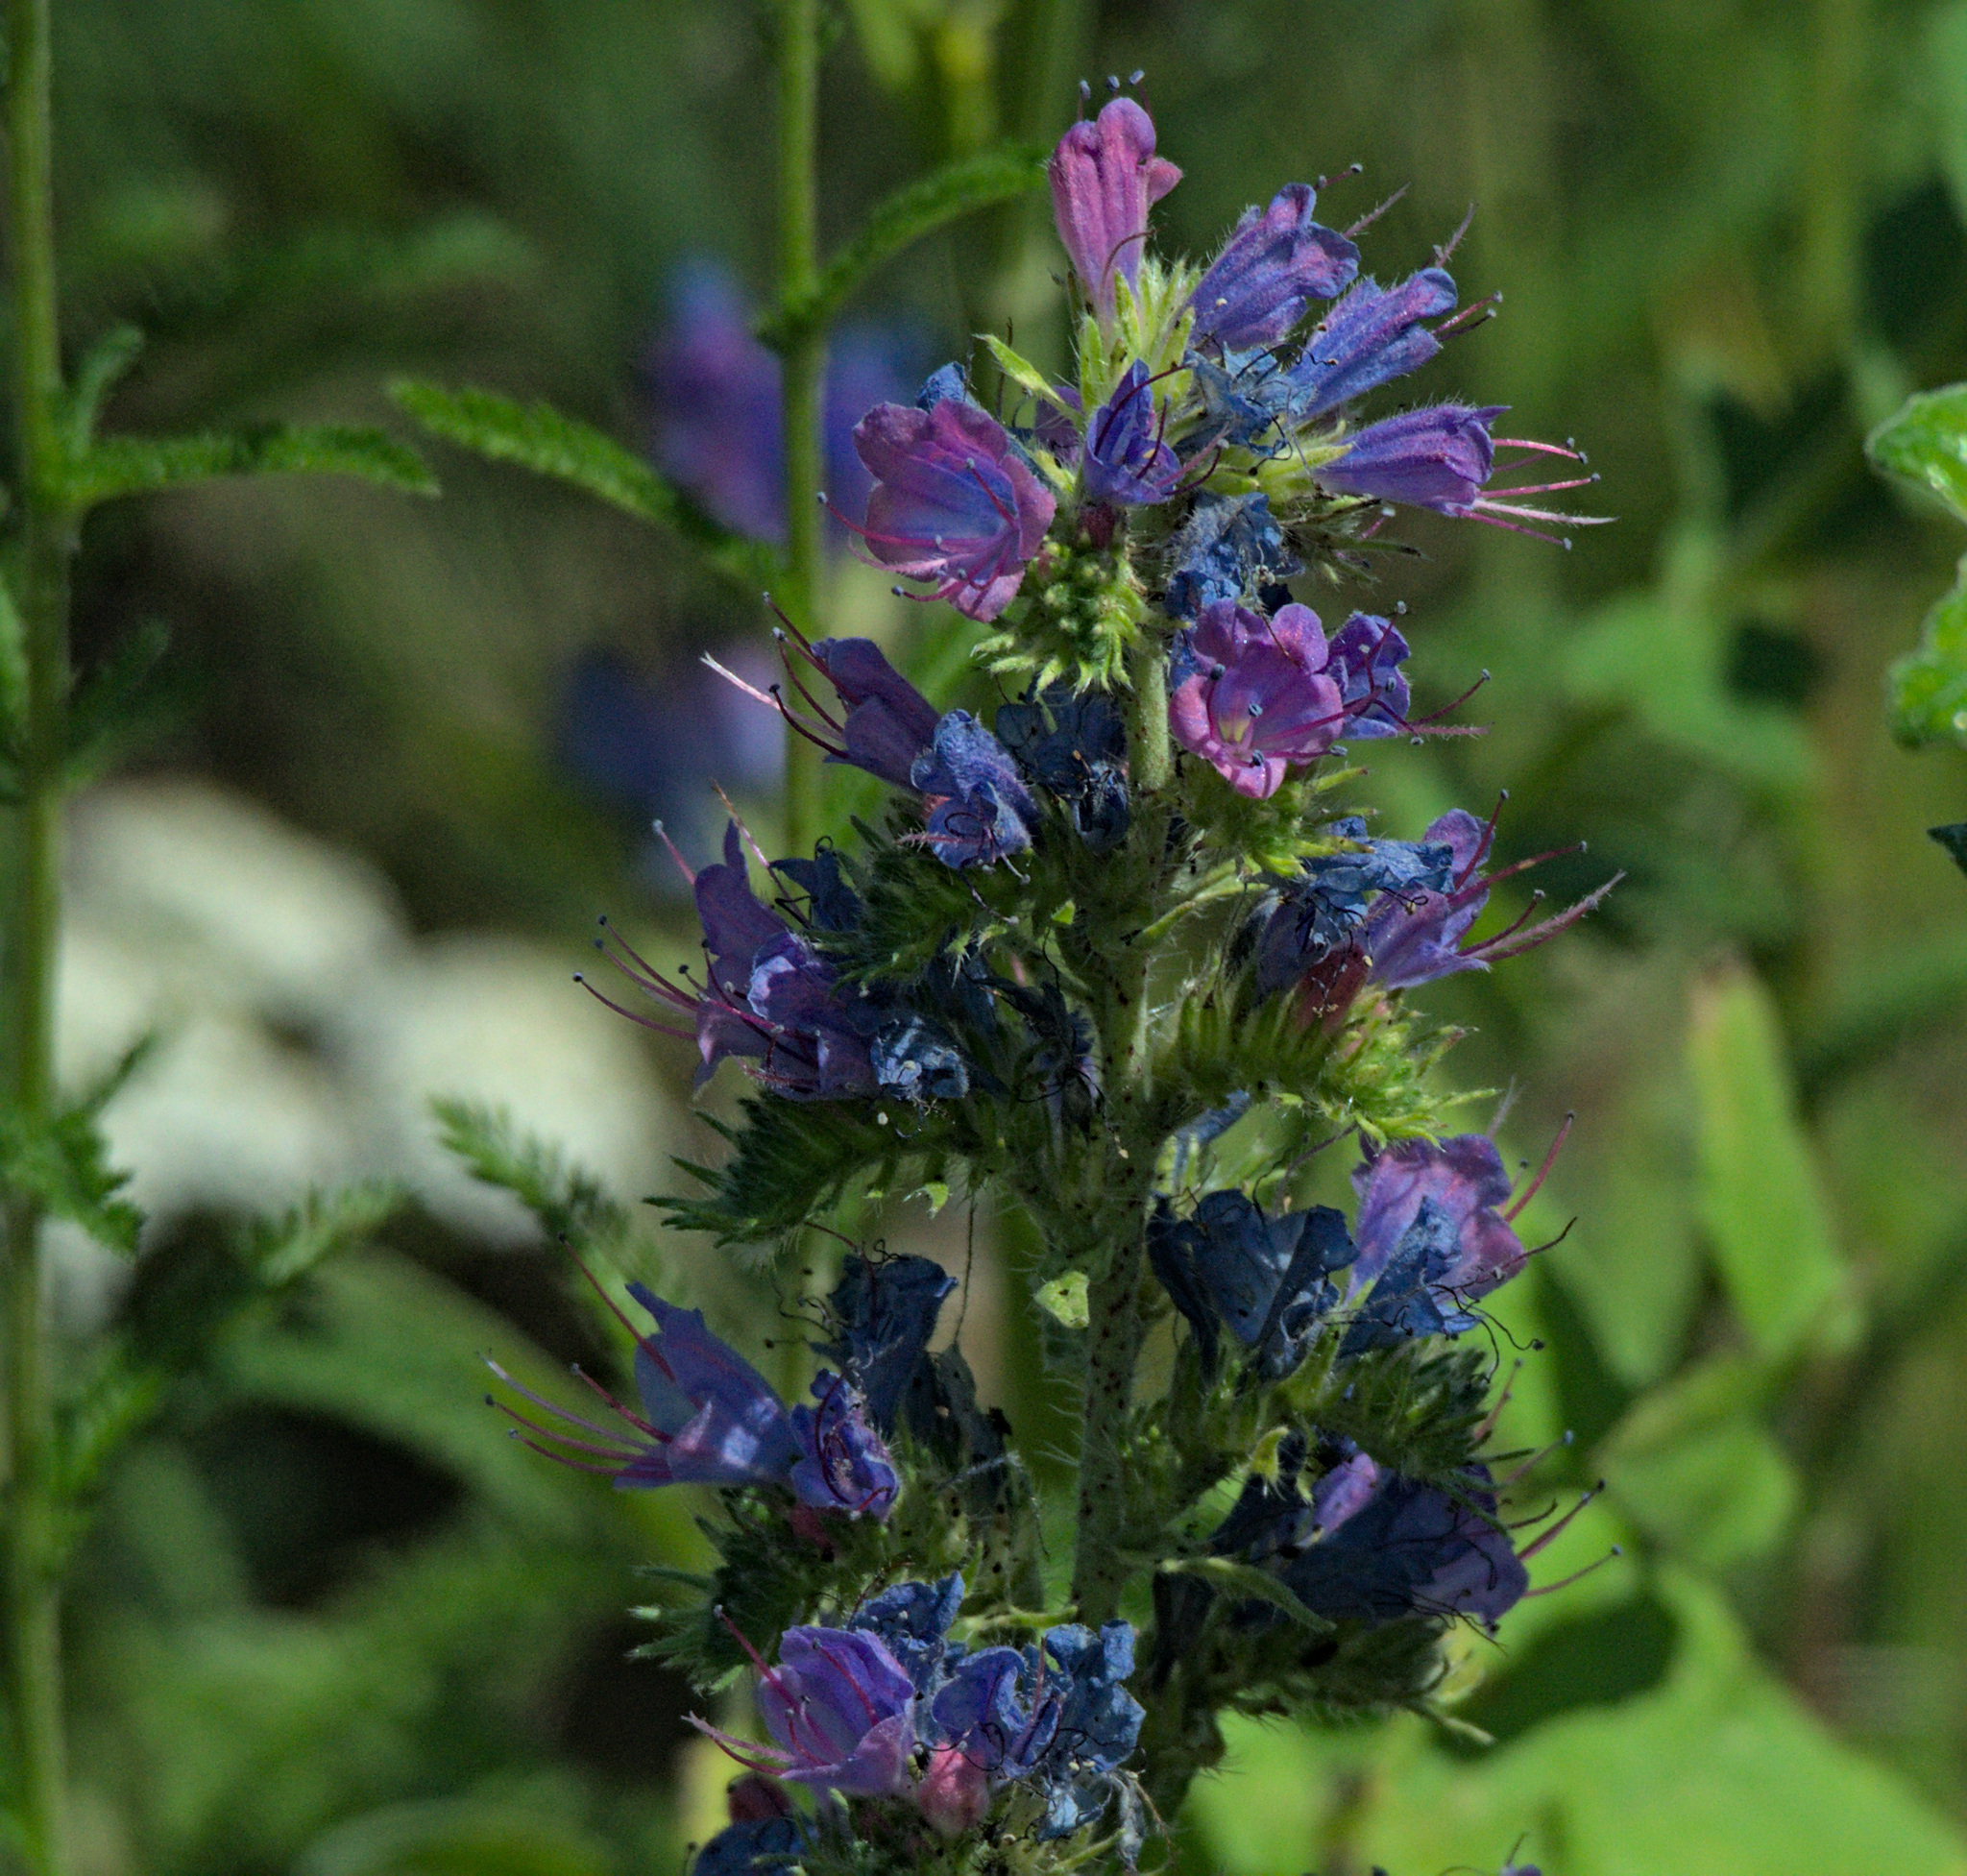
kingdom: Plantae
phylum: Tracheophyta
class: Magnoliopsida
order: Boraginales
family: Boraginaceae
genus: Echium
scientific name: Echium vulgare
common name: Common viper's bugloss
